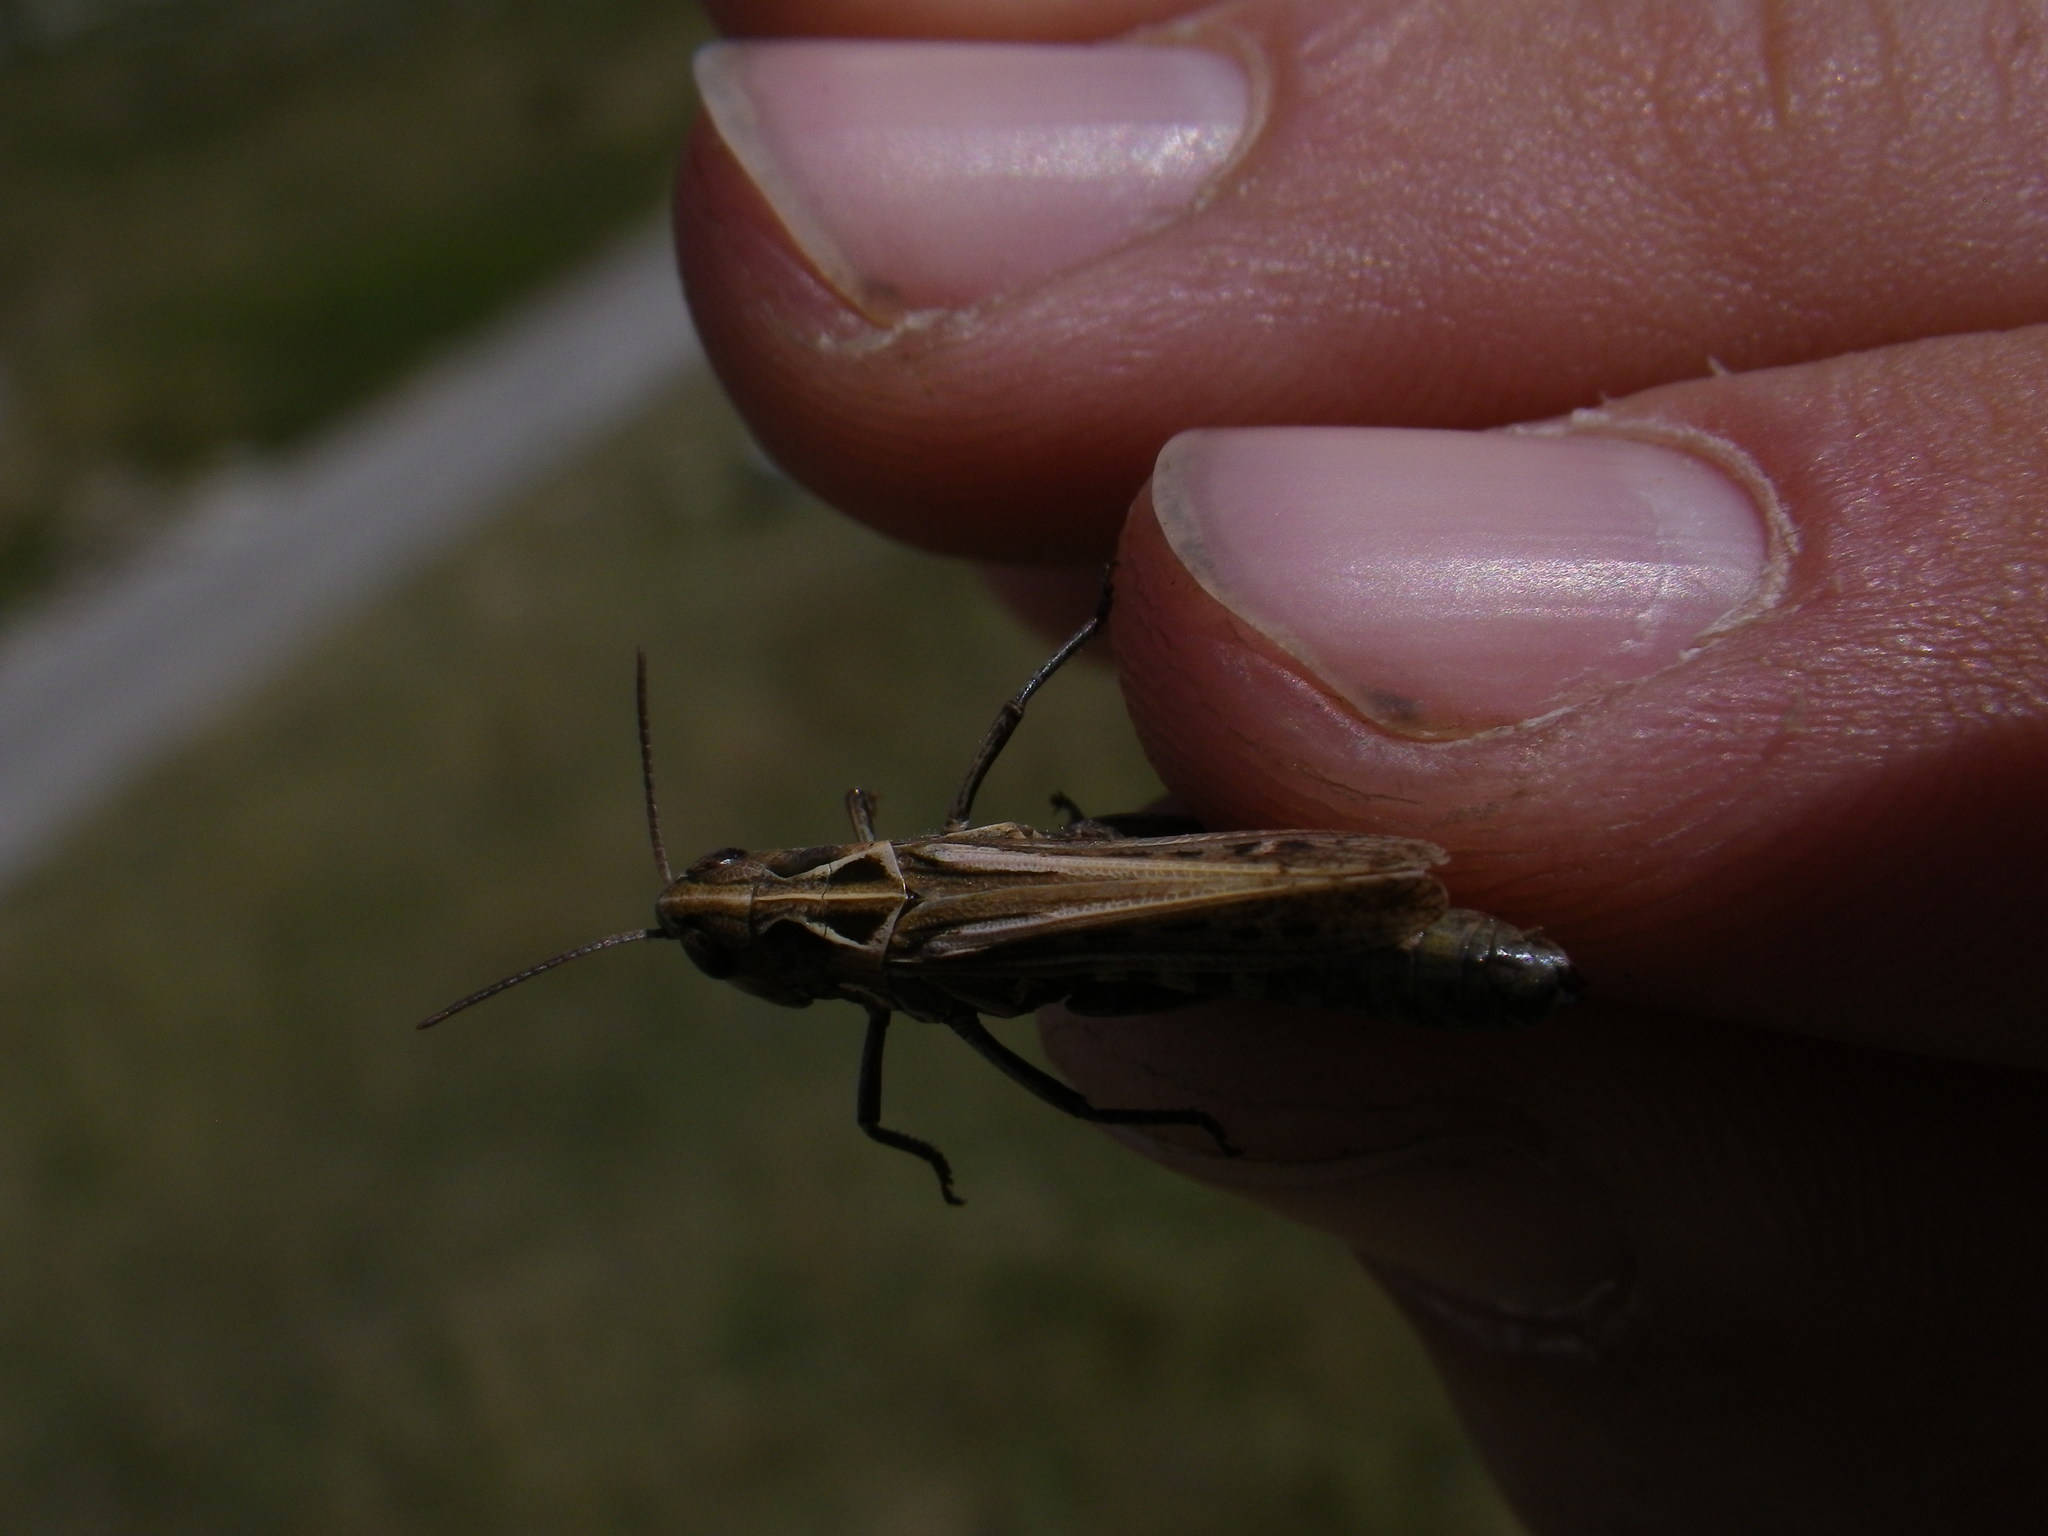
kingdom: Animalia
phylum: Arthropoda
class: Insecta
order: Orthoptera
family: Acrididae
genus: Omocestus
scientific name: Omocestus haemorrhoidalis
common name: Orange-tipped grasshopper
